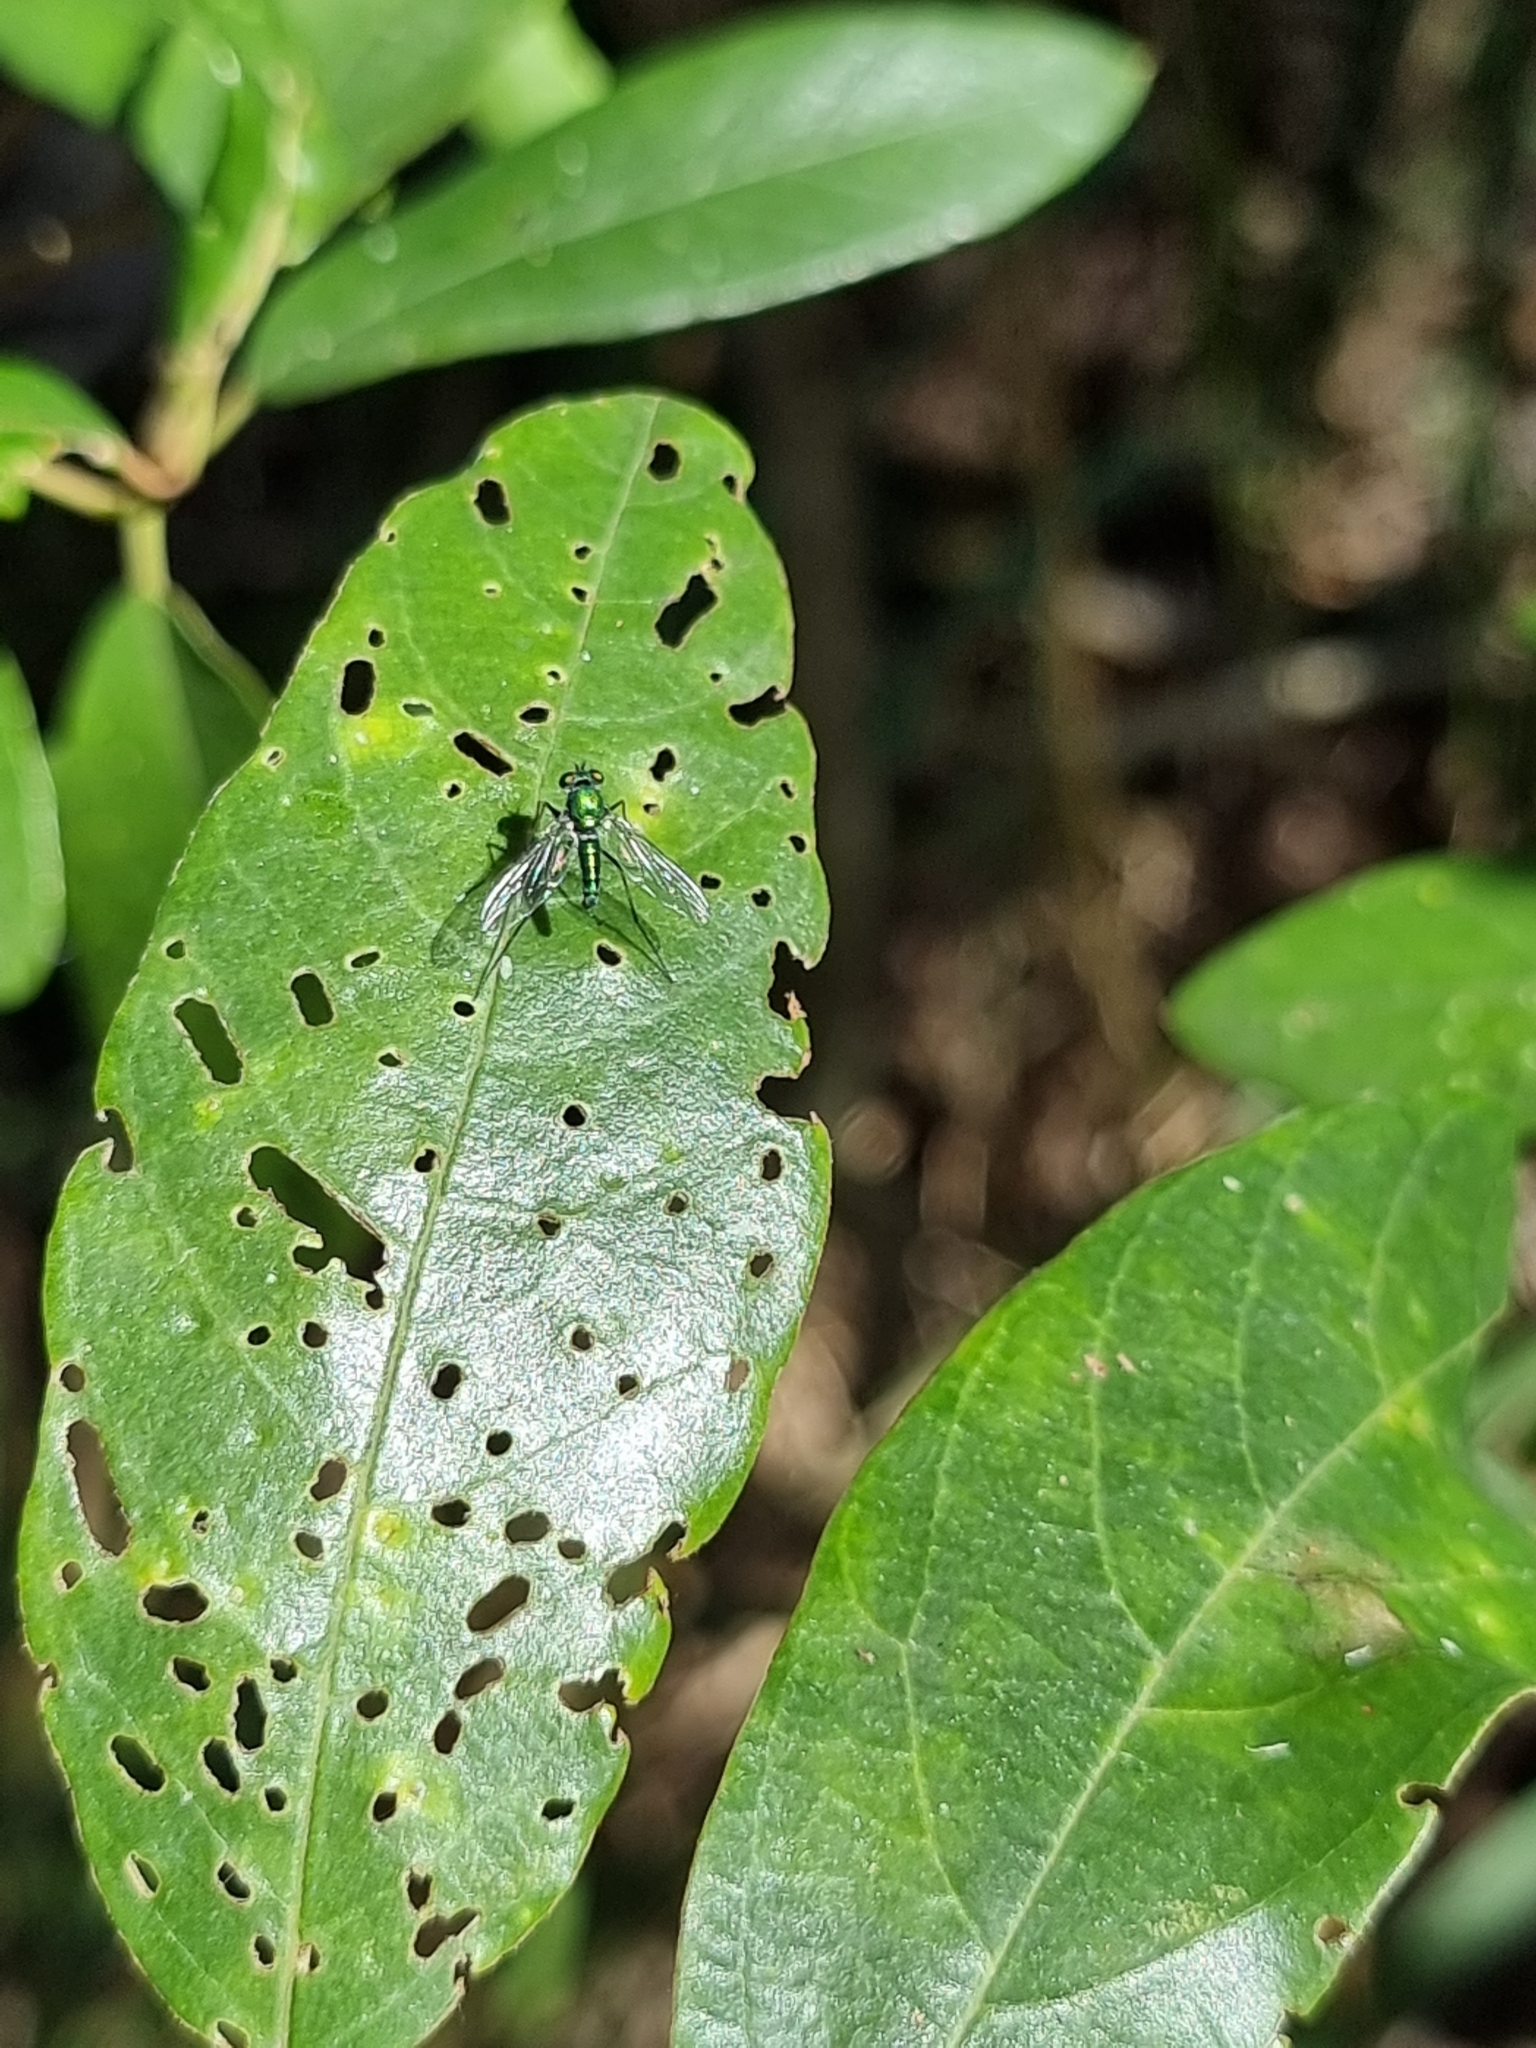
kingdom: Animalia
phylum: Arthropoda
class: Insecta
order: Diptera
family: Dolichopodidae
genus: Chrysosoma
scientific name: Chrysosoma leucopogon
